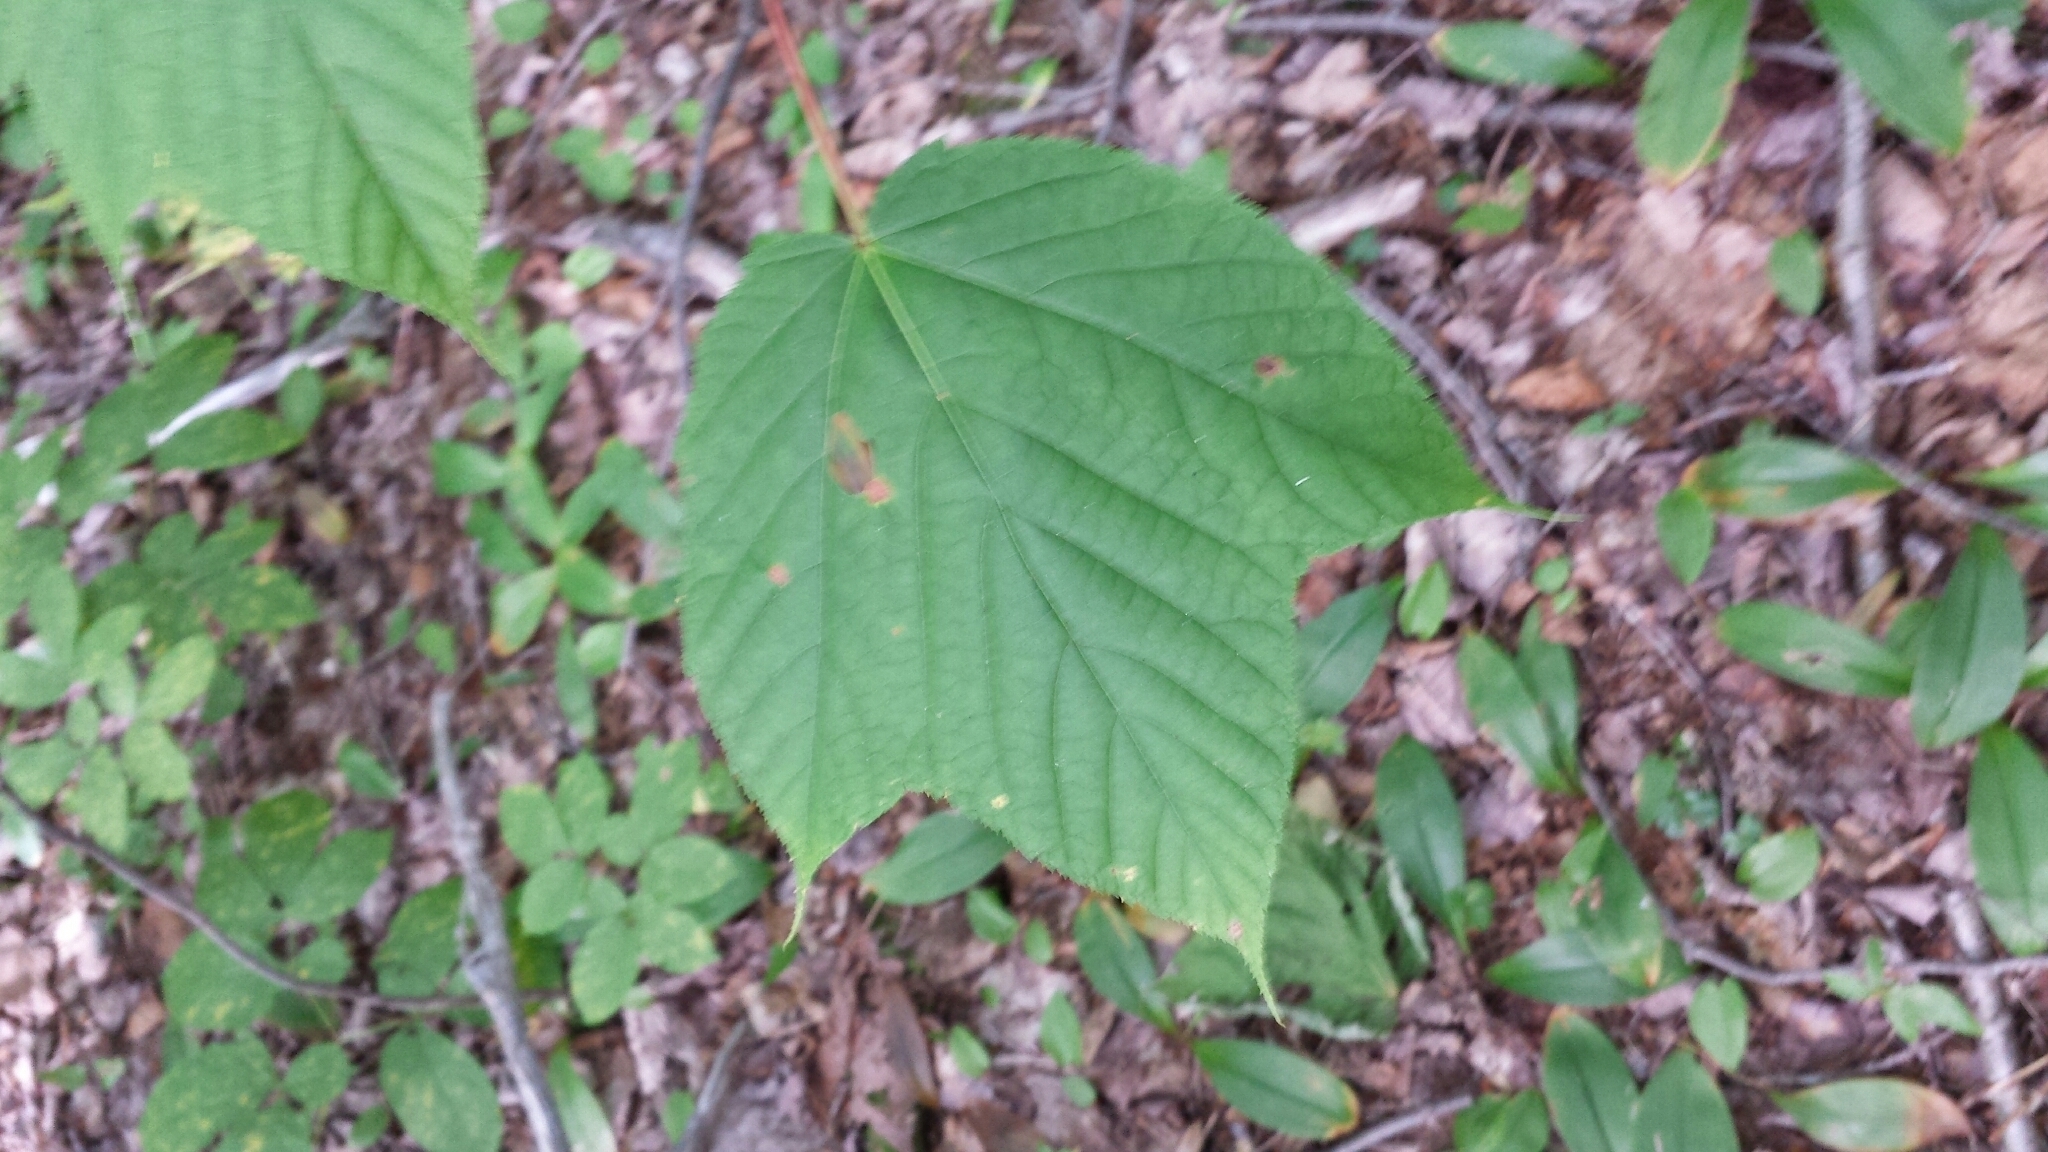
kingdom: Plantae
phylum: Tracheophyta
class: Magnoliopsida
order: Sapindales
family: Sapindaceae
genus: Acer
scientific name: Acer pensylvanicum
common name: Moosewood
